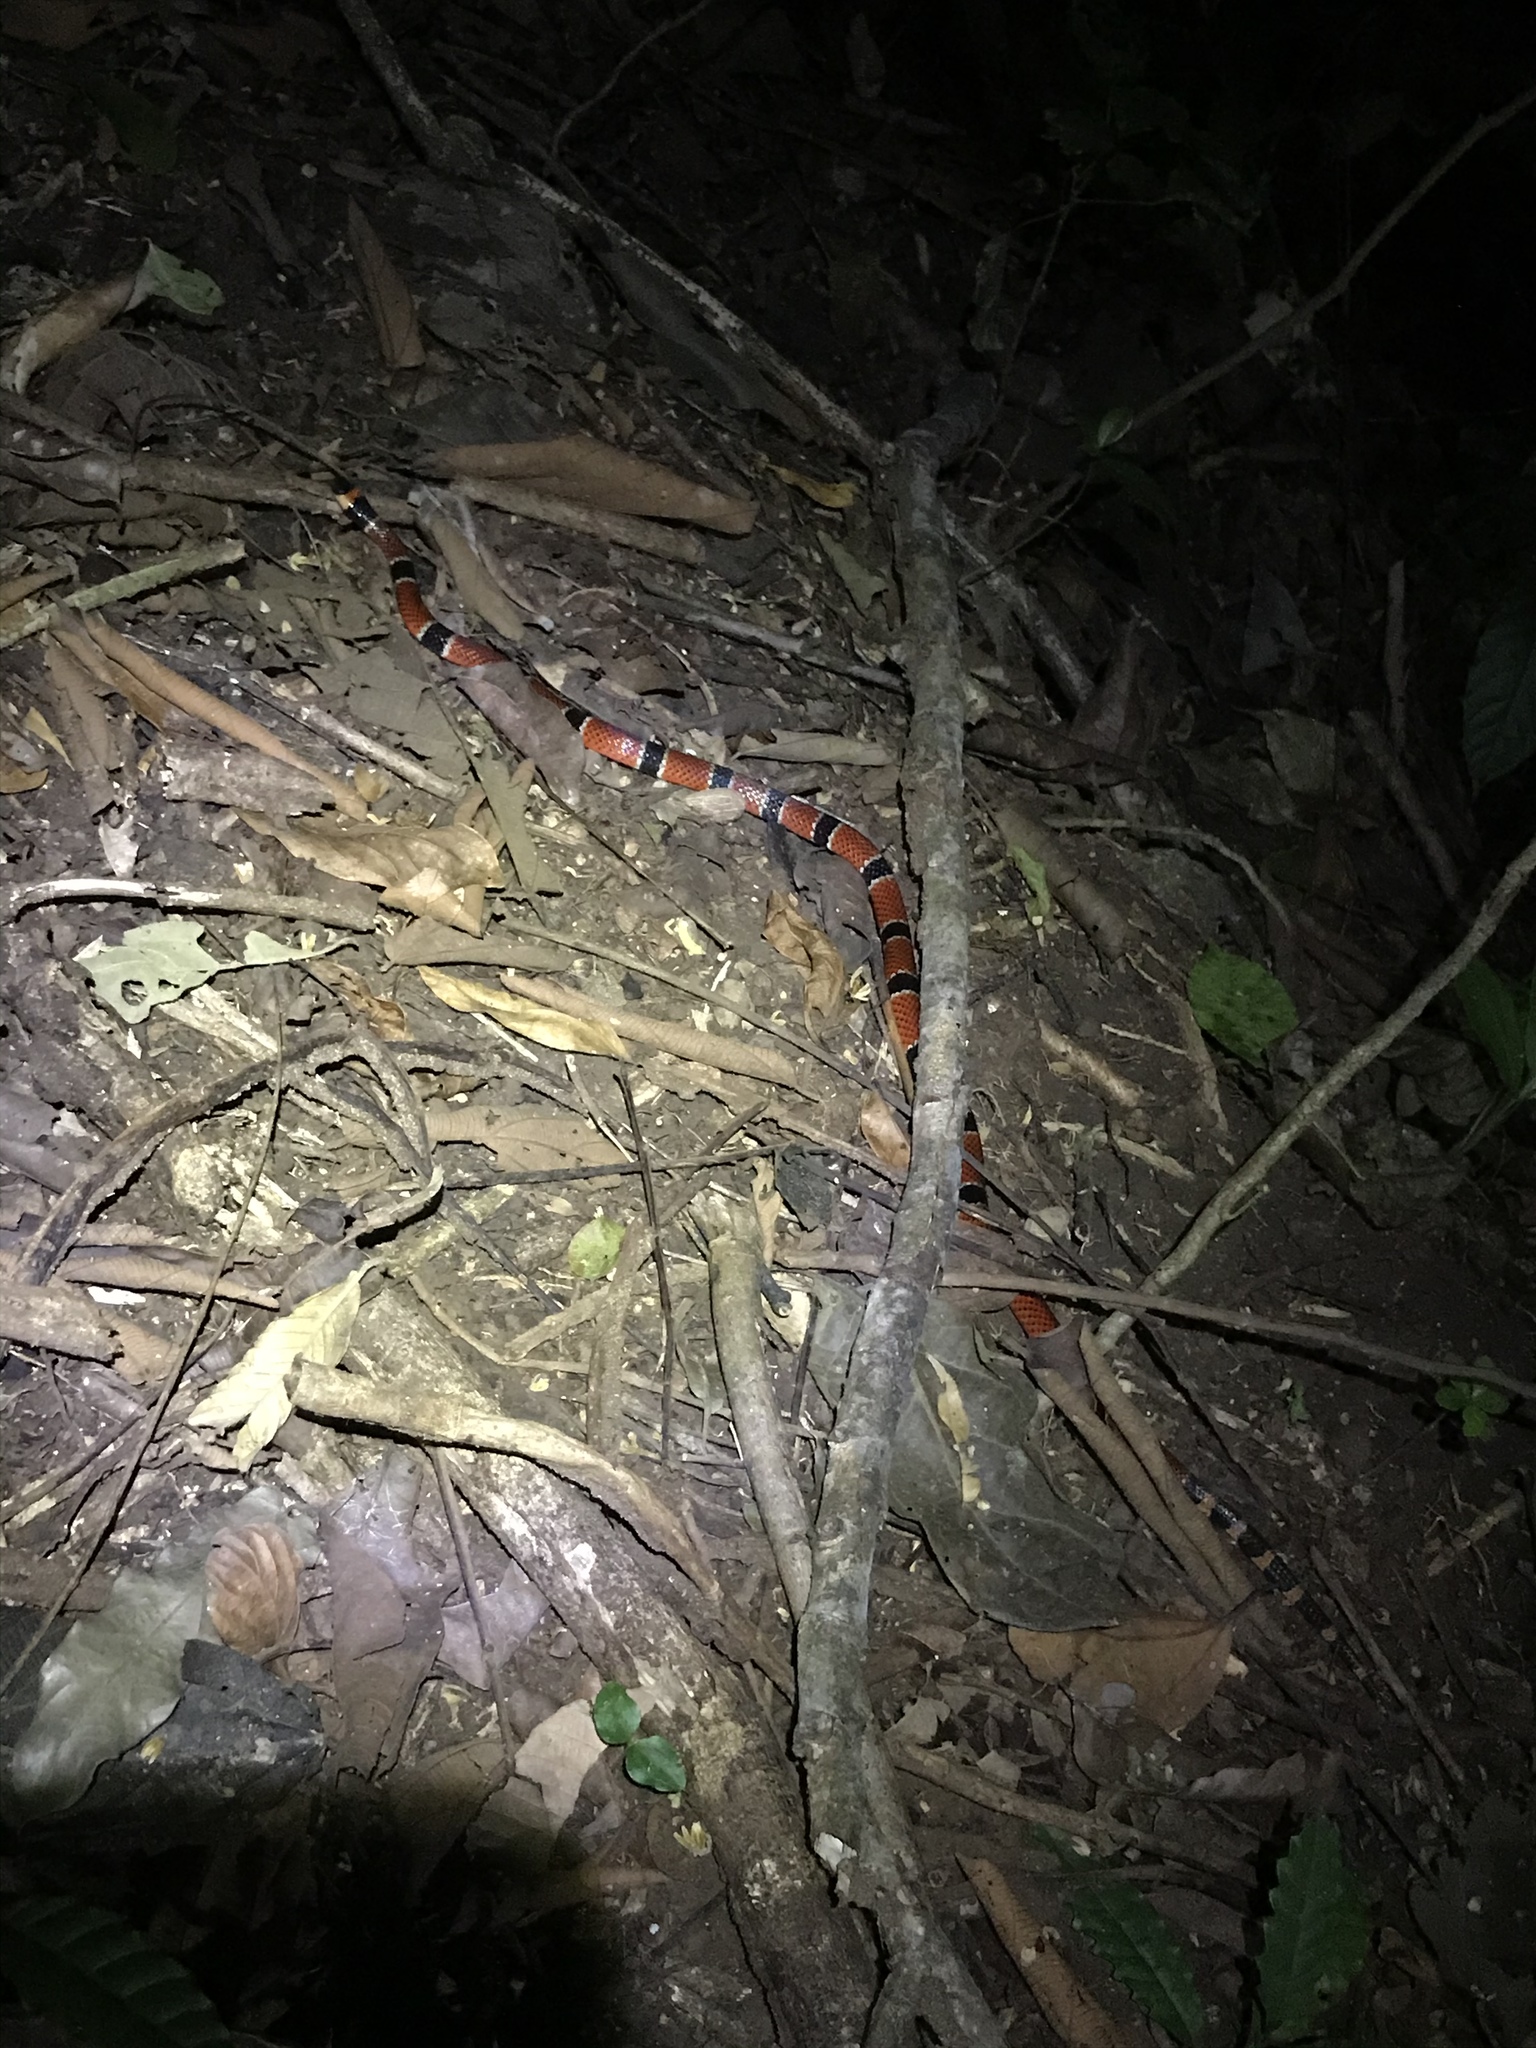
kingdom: Animalia
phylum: Chordata
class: Squamata
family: Elapidae
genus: Micrurus
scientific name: Micrurus nigrocinctus
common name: Babaspul [babaspul]
